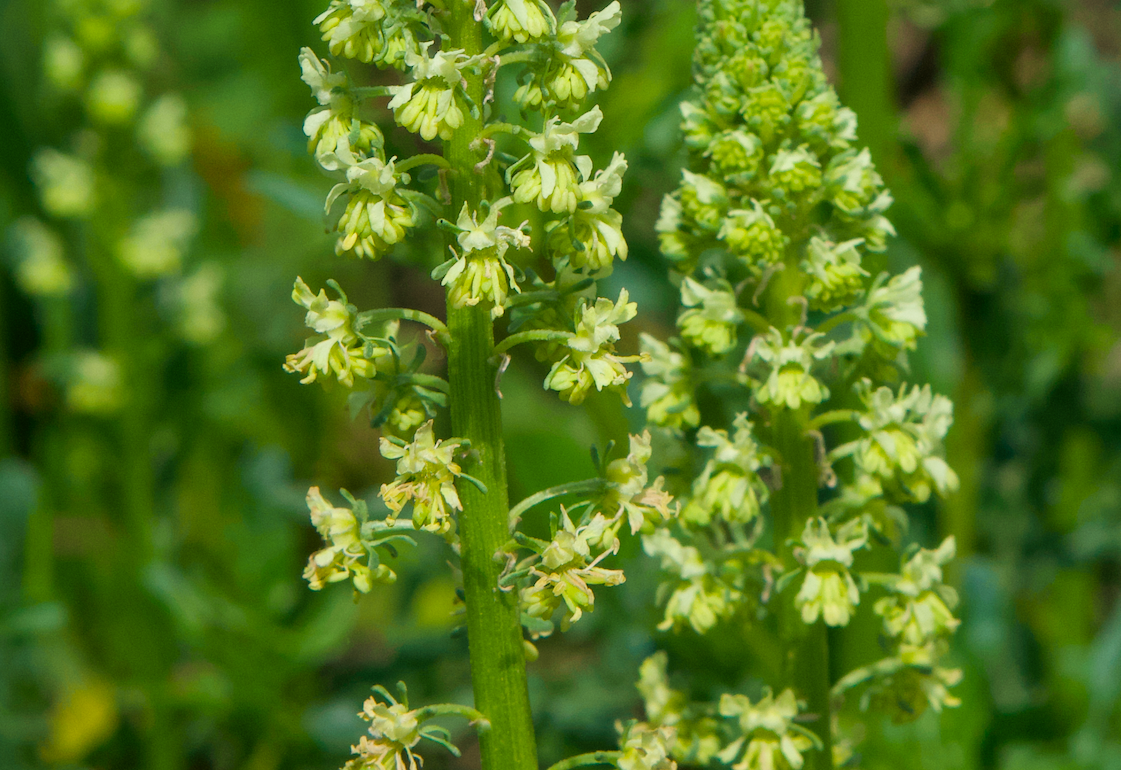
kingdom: Plantae
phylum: Tracheophyta
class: Magnoliopsida
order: Brassicales
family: Resedaceae
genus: Reseda
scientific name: Reseda lutea
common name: Wild mignonette
